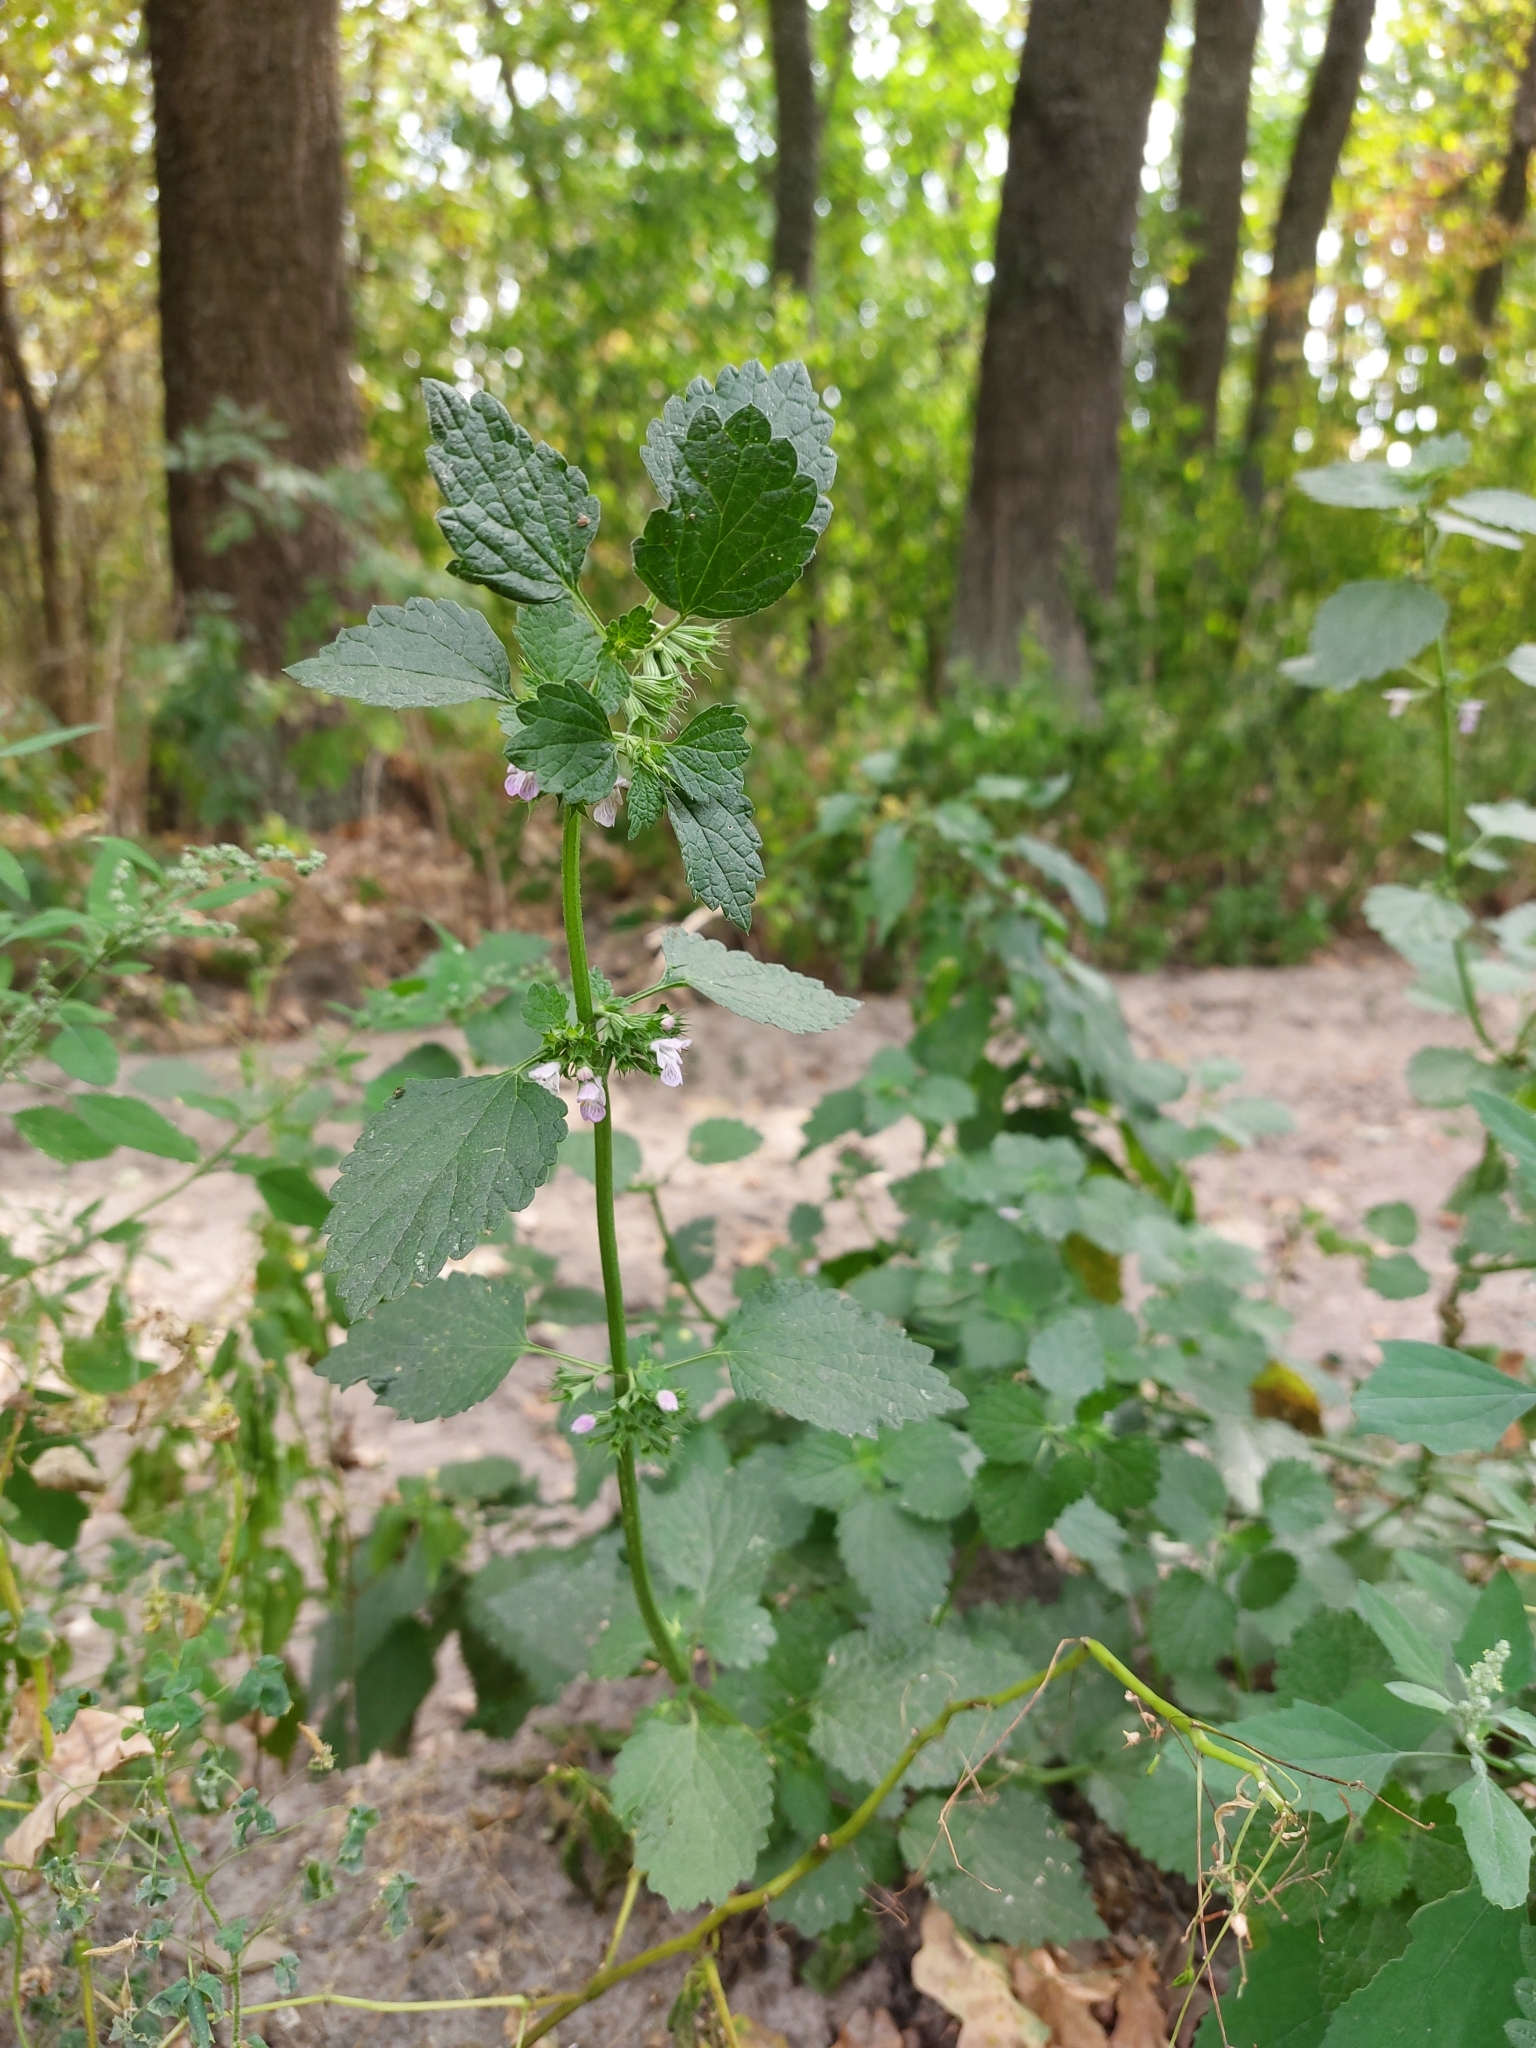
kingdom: Plantae
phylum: Tracheophyta
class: Magnoliopsida
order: Lamiales
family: Lamiaceae
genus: Ballota
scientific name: Ballota nigra
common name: Black horehound
